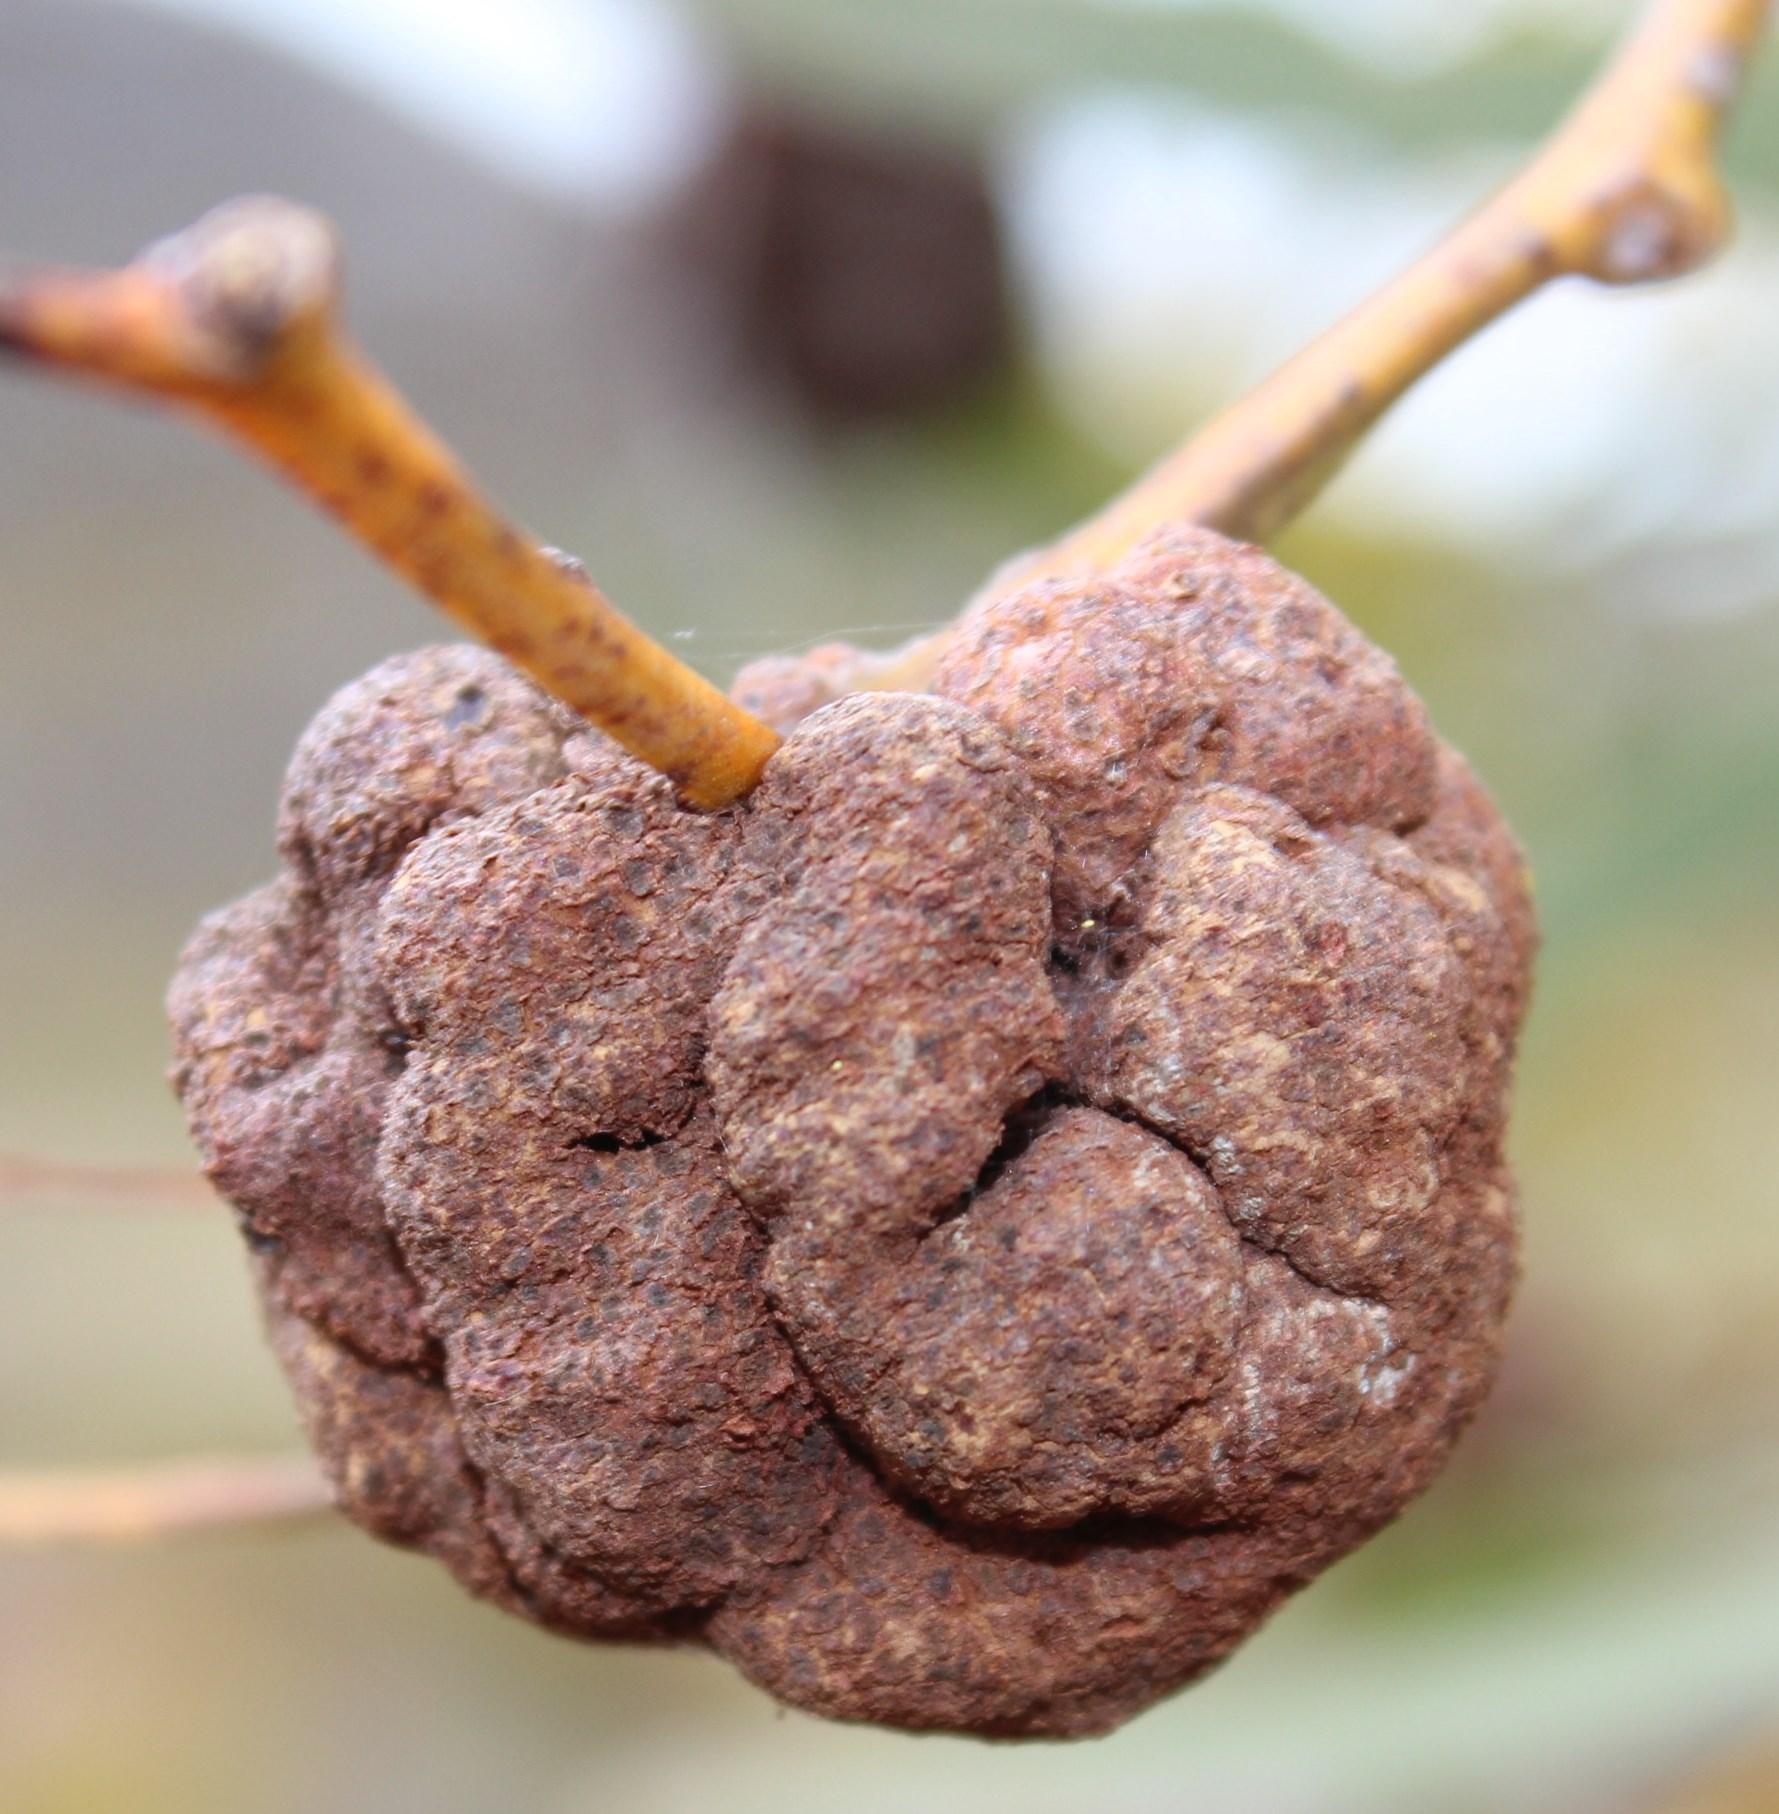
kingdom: Fungi
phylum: Basidiomycota
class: Pucciniomycetes
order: Pucciniales
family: Uromycladiaceae
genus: Uromycladium
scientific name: Uromycladium morrisii
